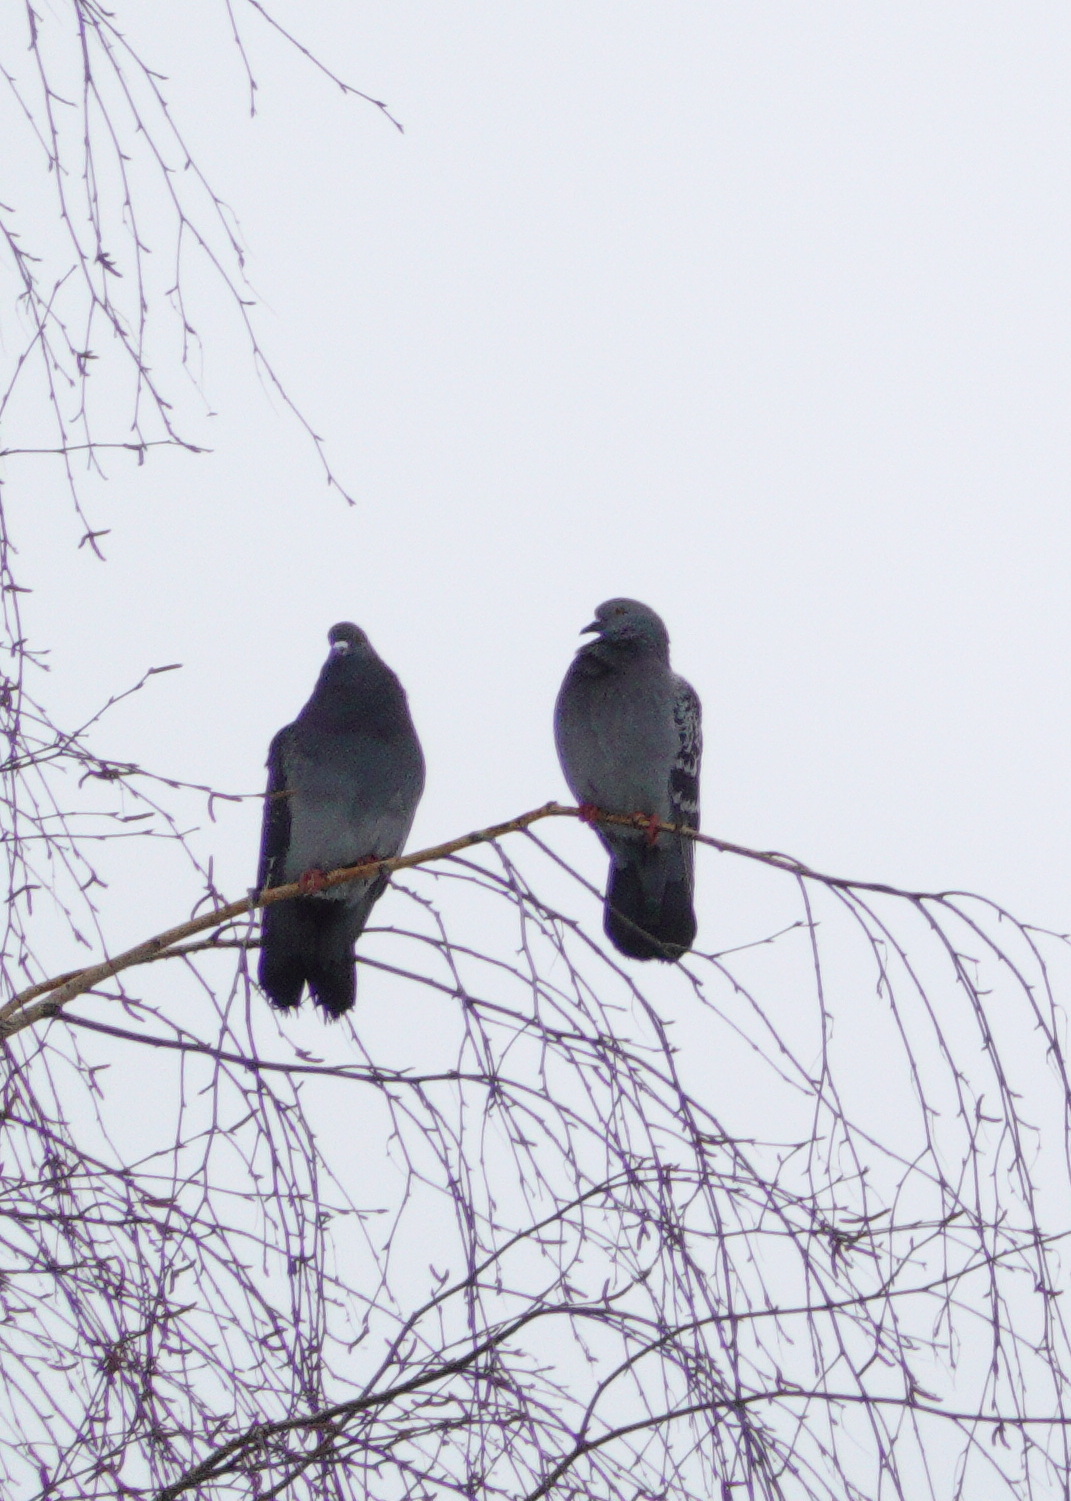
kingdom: Animalia
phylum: Chordata
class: Aves
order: Columbiformes
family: Columbidae
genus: Columba
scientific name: Columba livia
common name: Rock pigeon
